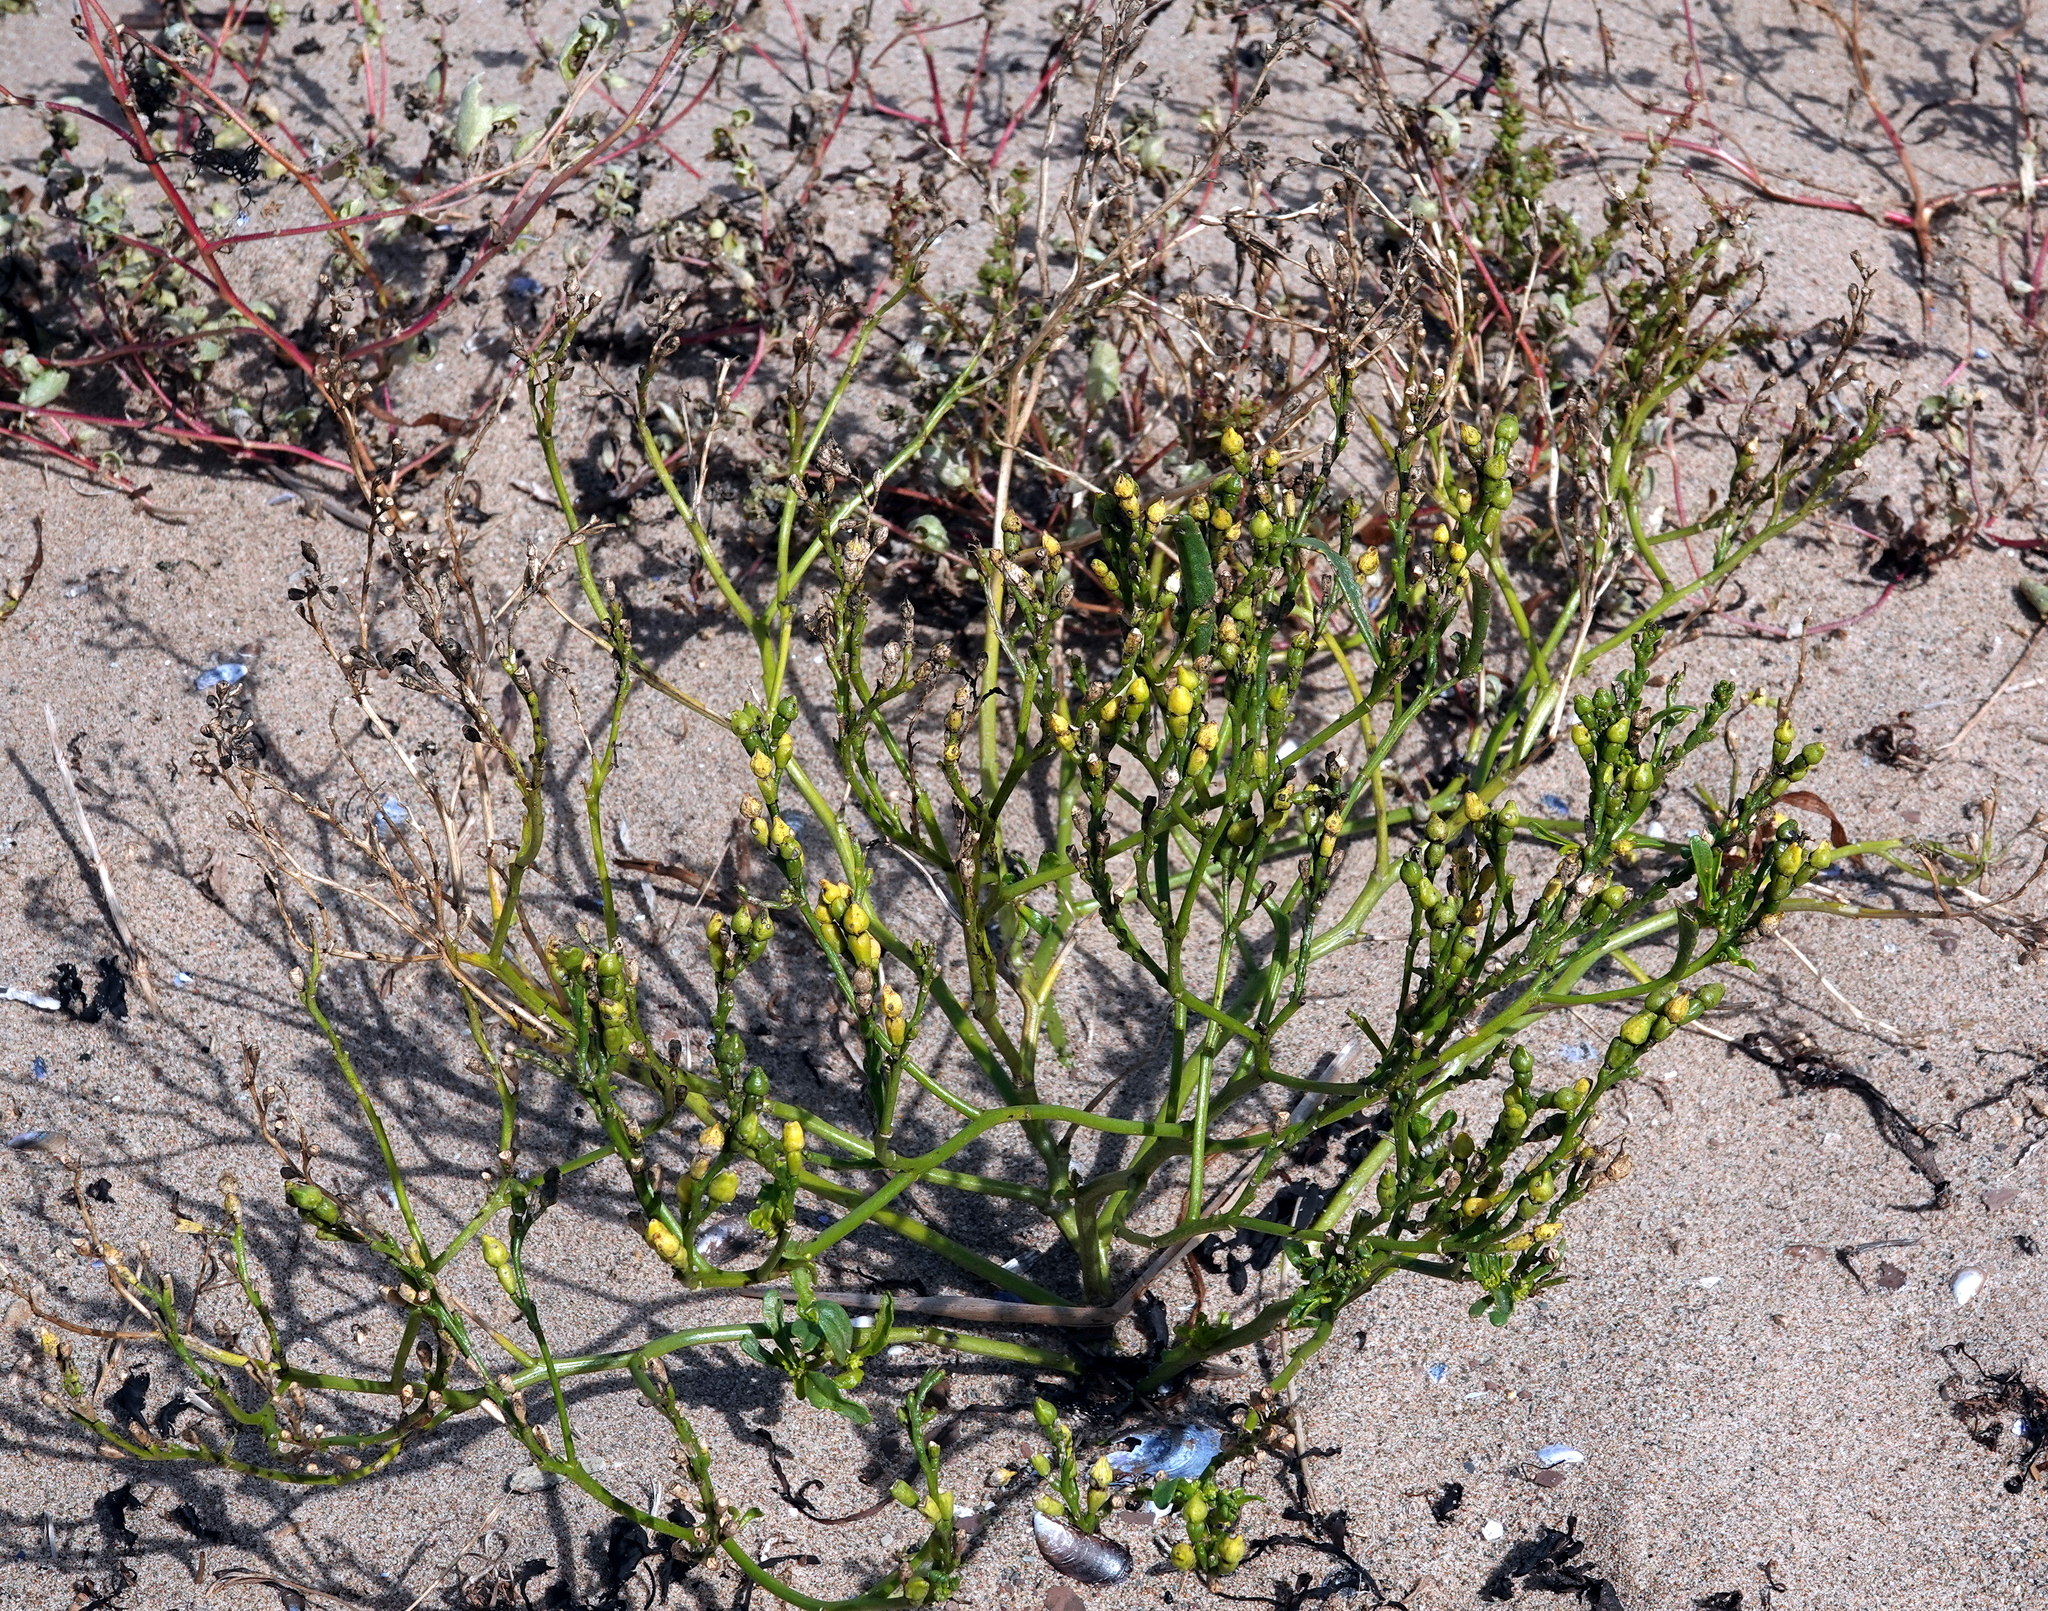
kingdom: Plantae
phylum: Tracheophyta
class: Magnoliopsida
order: Brassicales
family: Brassicaceae
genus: Cakile
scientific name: Cakile edentula
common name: American sea rocket
